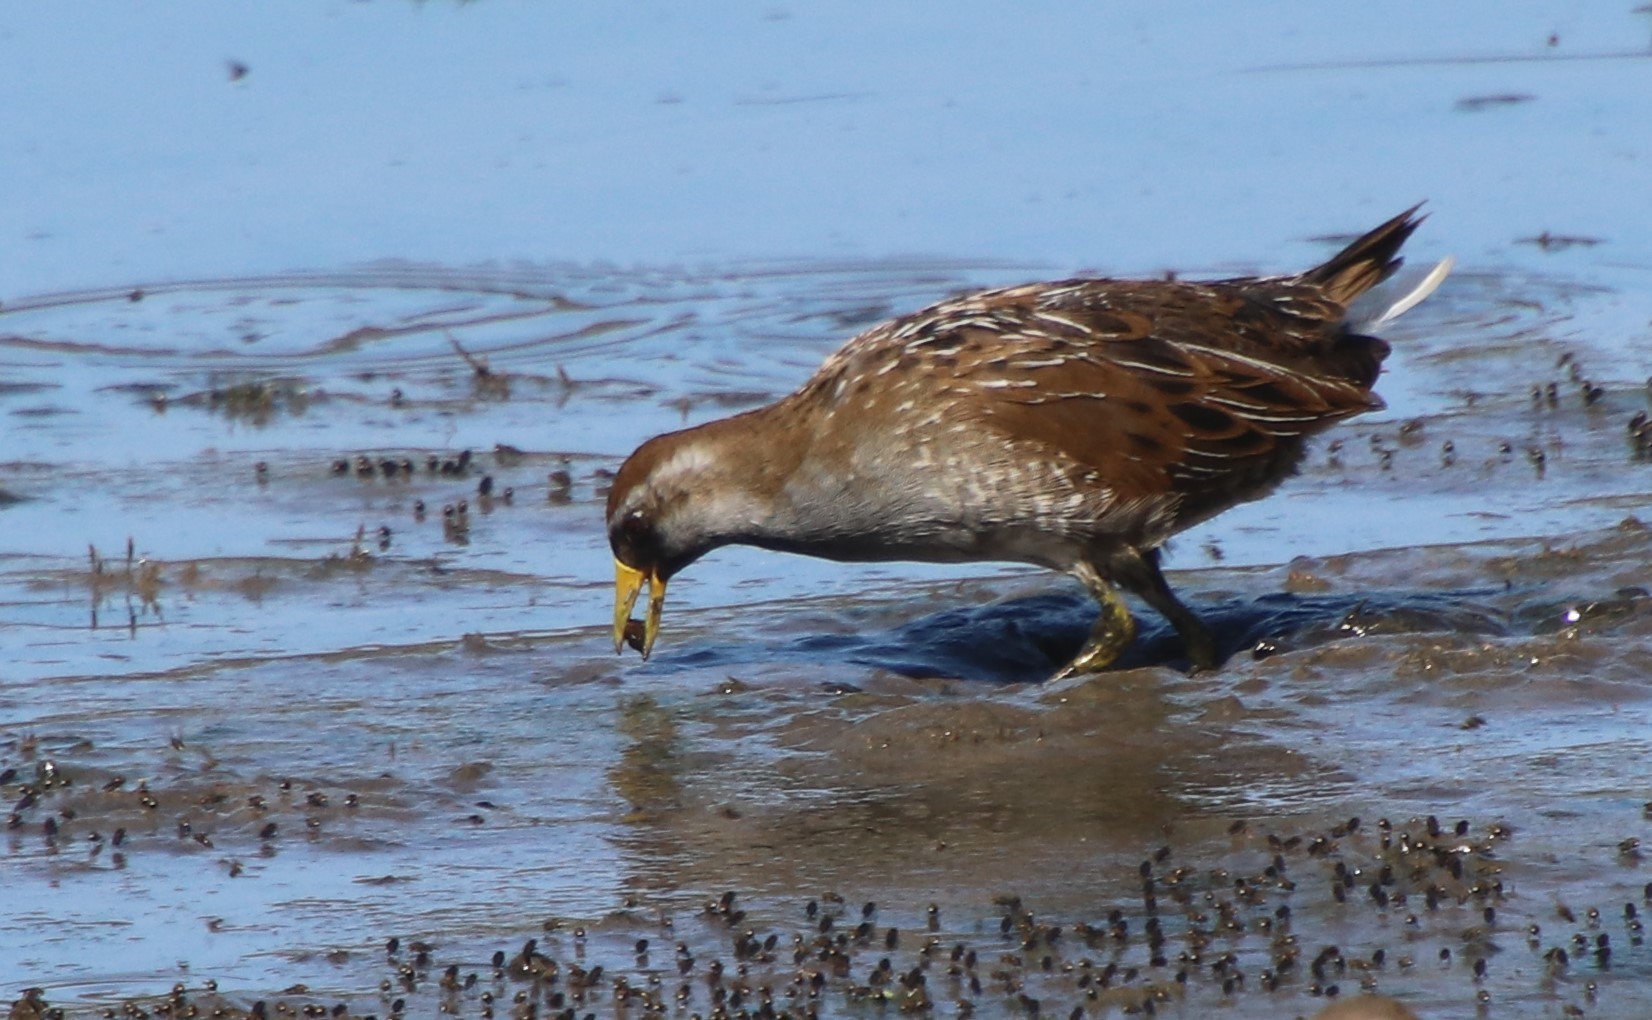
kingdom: Animalia
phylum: Chordata
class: Aves
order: Gruiformes
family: Rallidae
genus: Porzana
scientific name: Porzana carolina
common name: Sora
